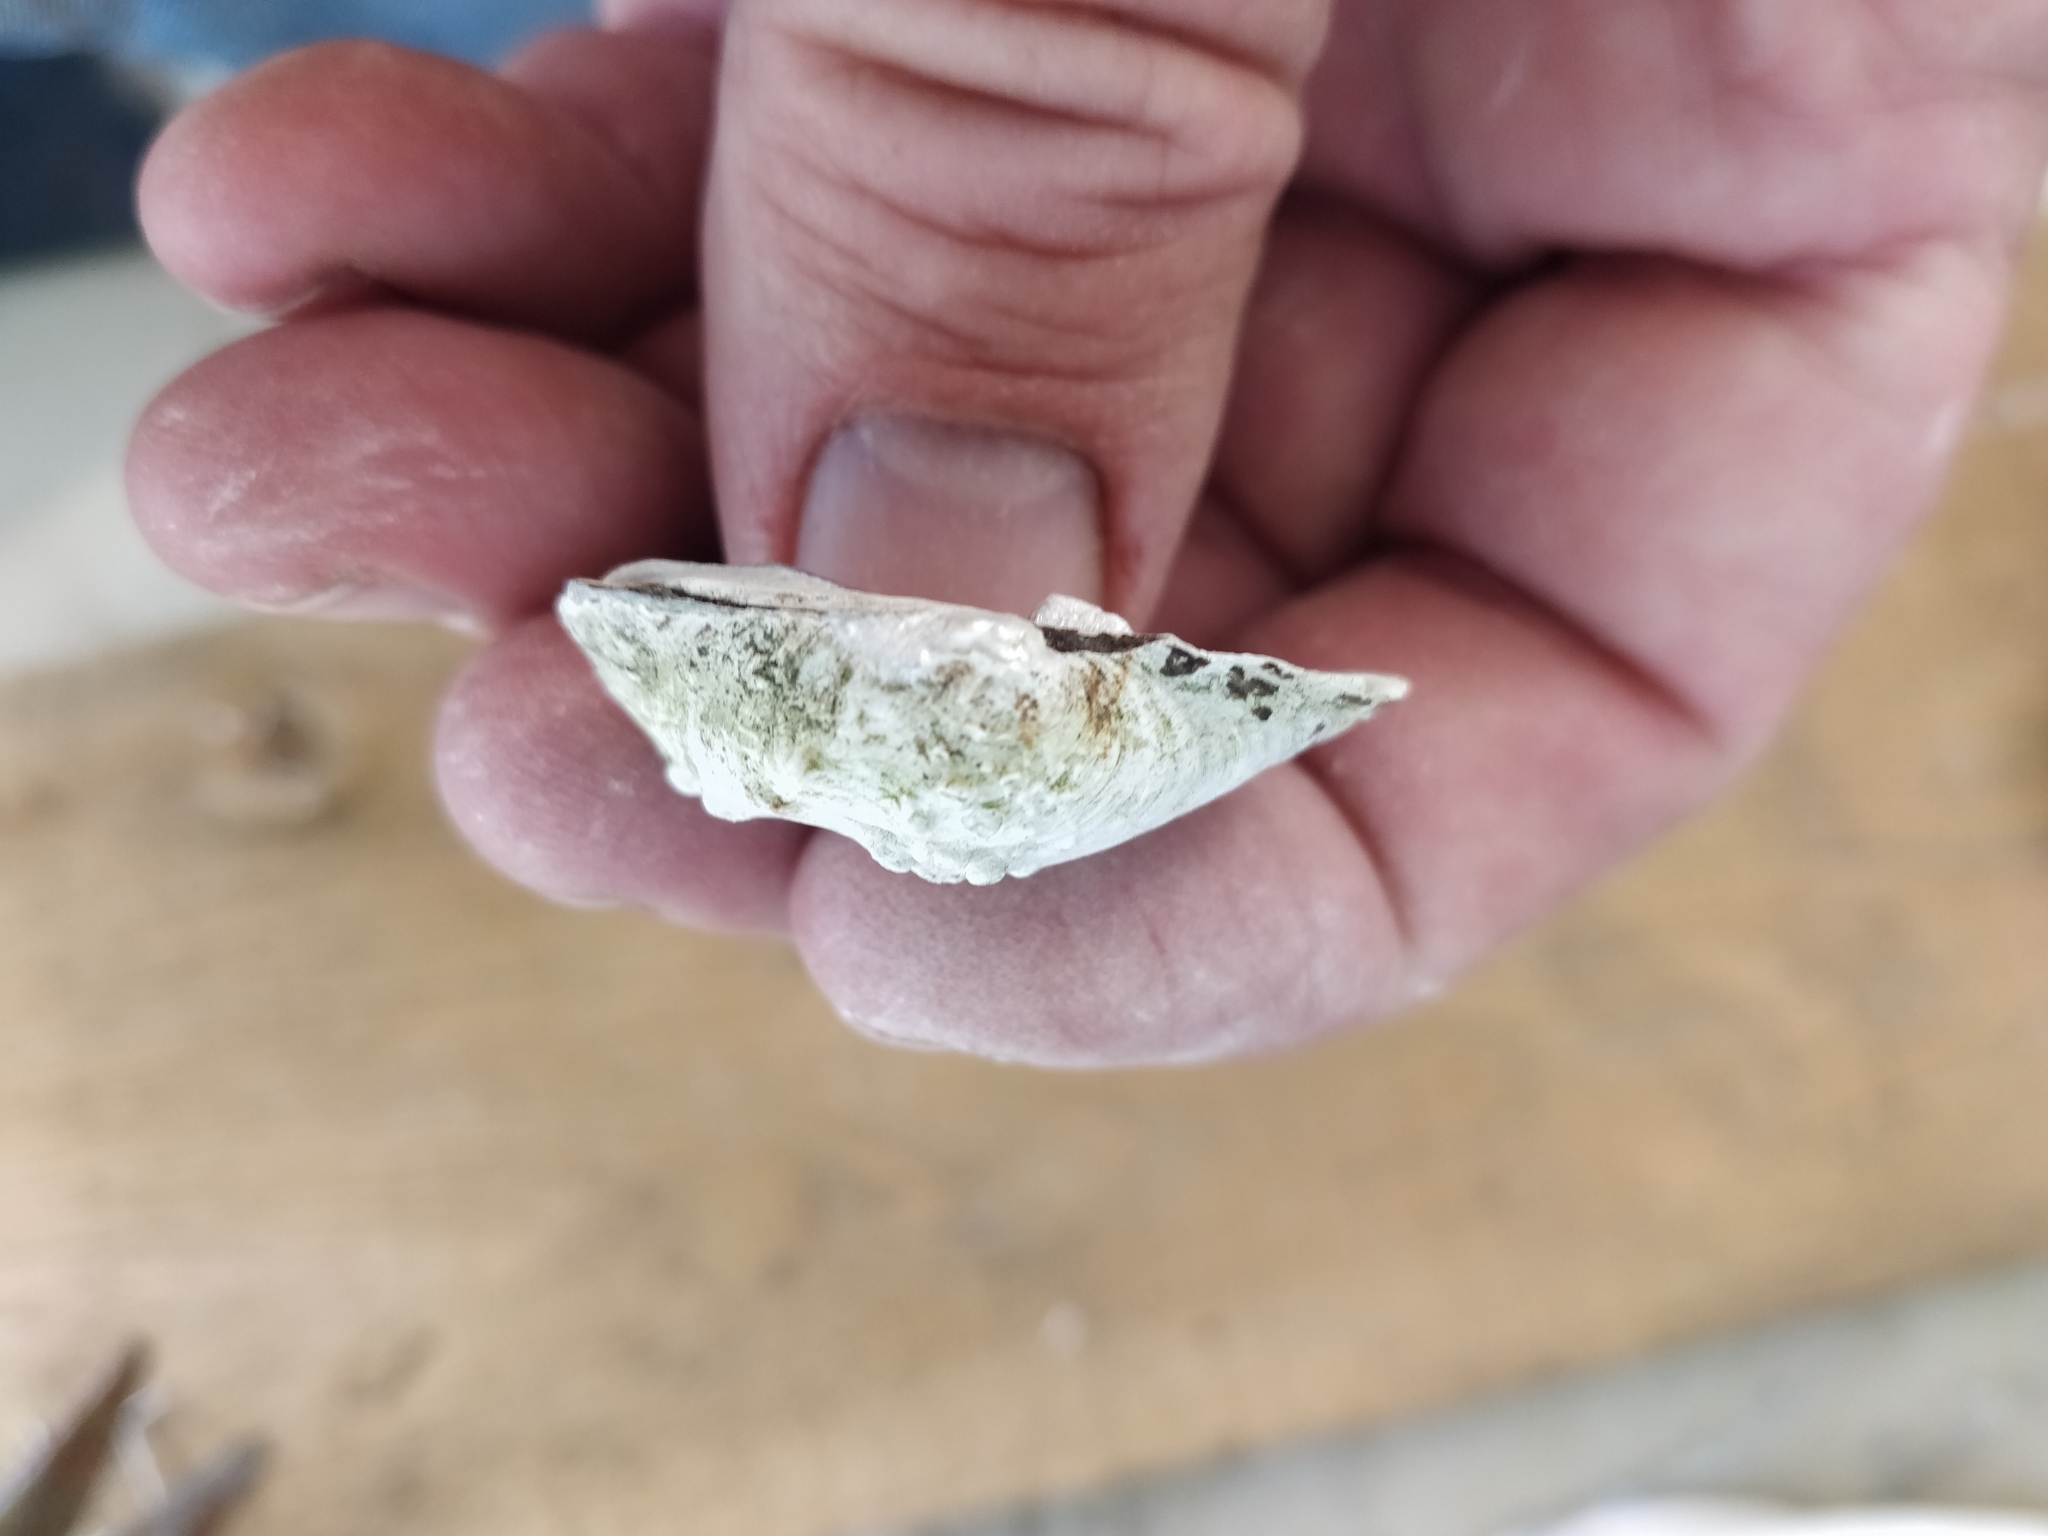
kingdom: Animalia
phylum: Mollusca
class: Bivalvia
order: Unionida
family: Unionidae
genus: Quadrula
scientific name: Quadrula quadrula
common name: Mapleleaf
